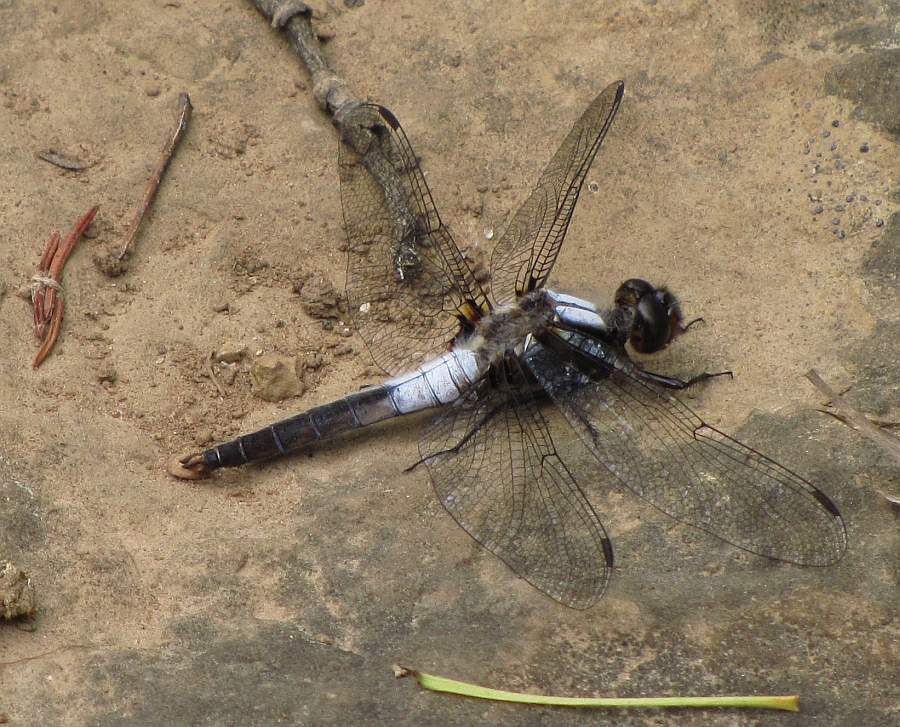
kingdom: Animalia
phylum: Arthropoda
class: Insecta
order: Odonata
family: Libellulidae
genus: Ladona
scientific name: Ladona julia
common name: Chalk-fronted corporal
